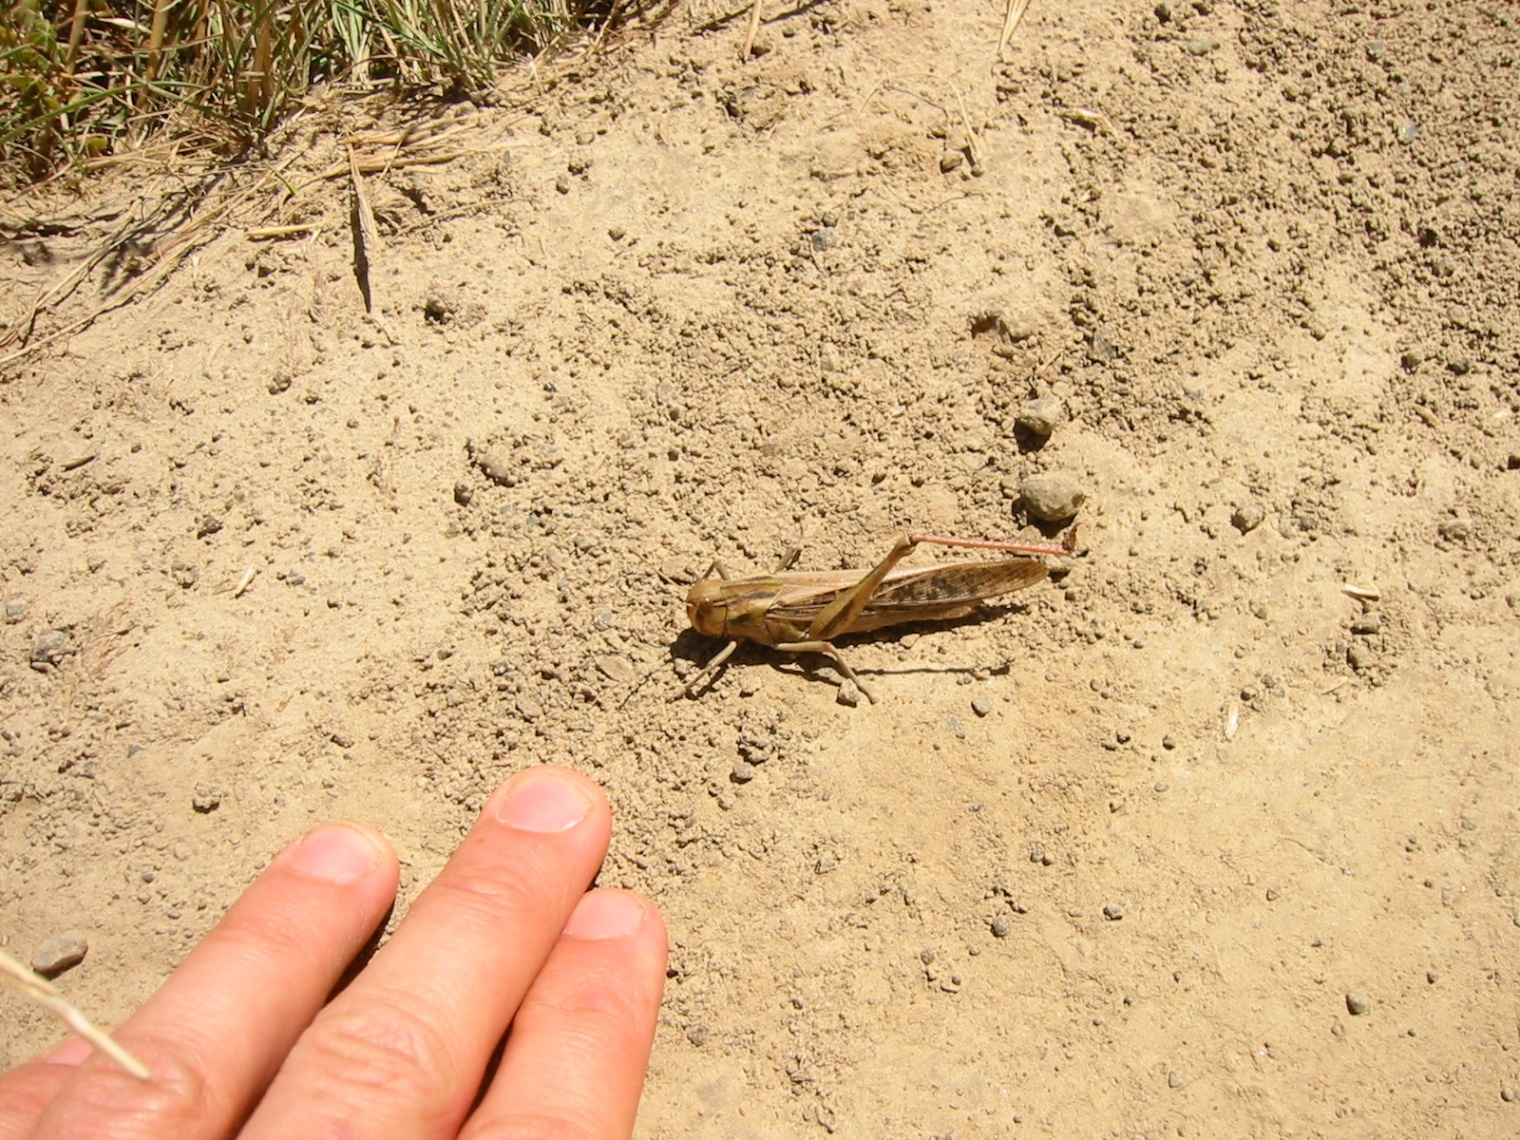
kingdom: Animalia
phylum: Arthropoda
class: Insecta
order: Orthoptera
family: Acrididae
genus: Locusta
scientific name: Locusta migratoria
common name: Migratory locust
